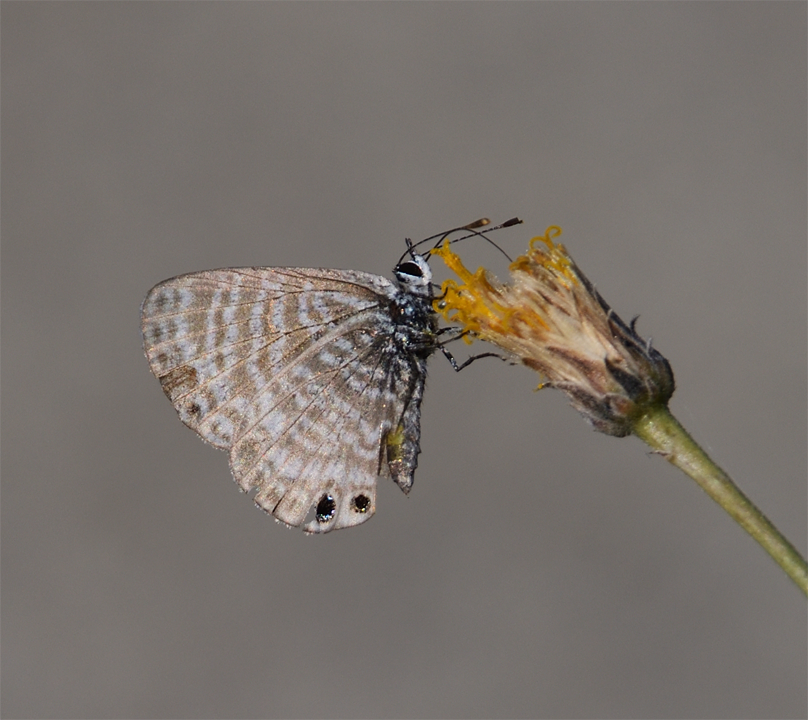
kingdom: Animalia
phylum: Arthropoda
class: Insecta
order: Lepidoptera
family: Lycaenidae
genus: Leptotes
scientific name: Leptotes marina
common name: Marine blue
